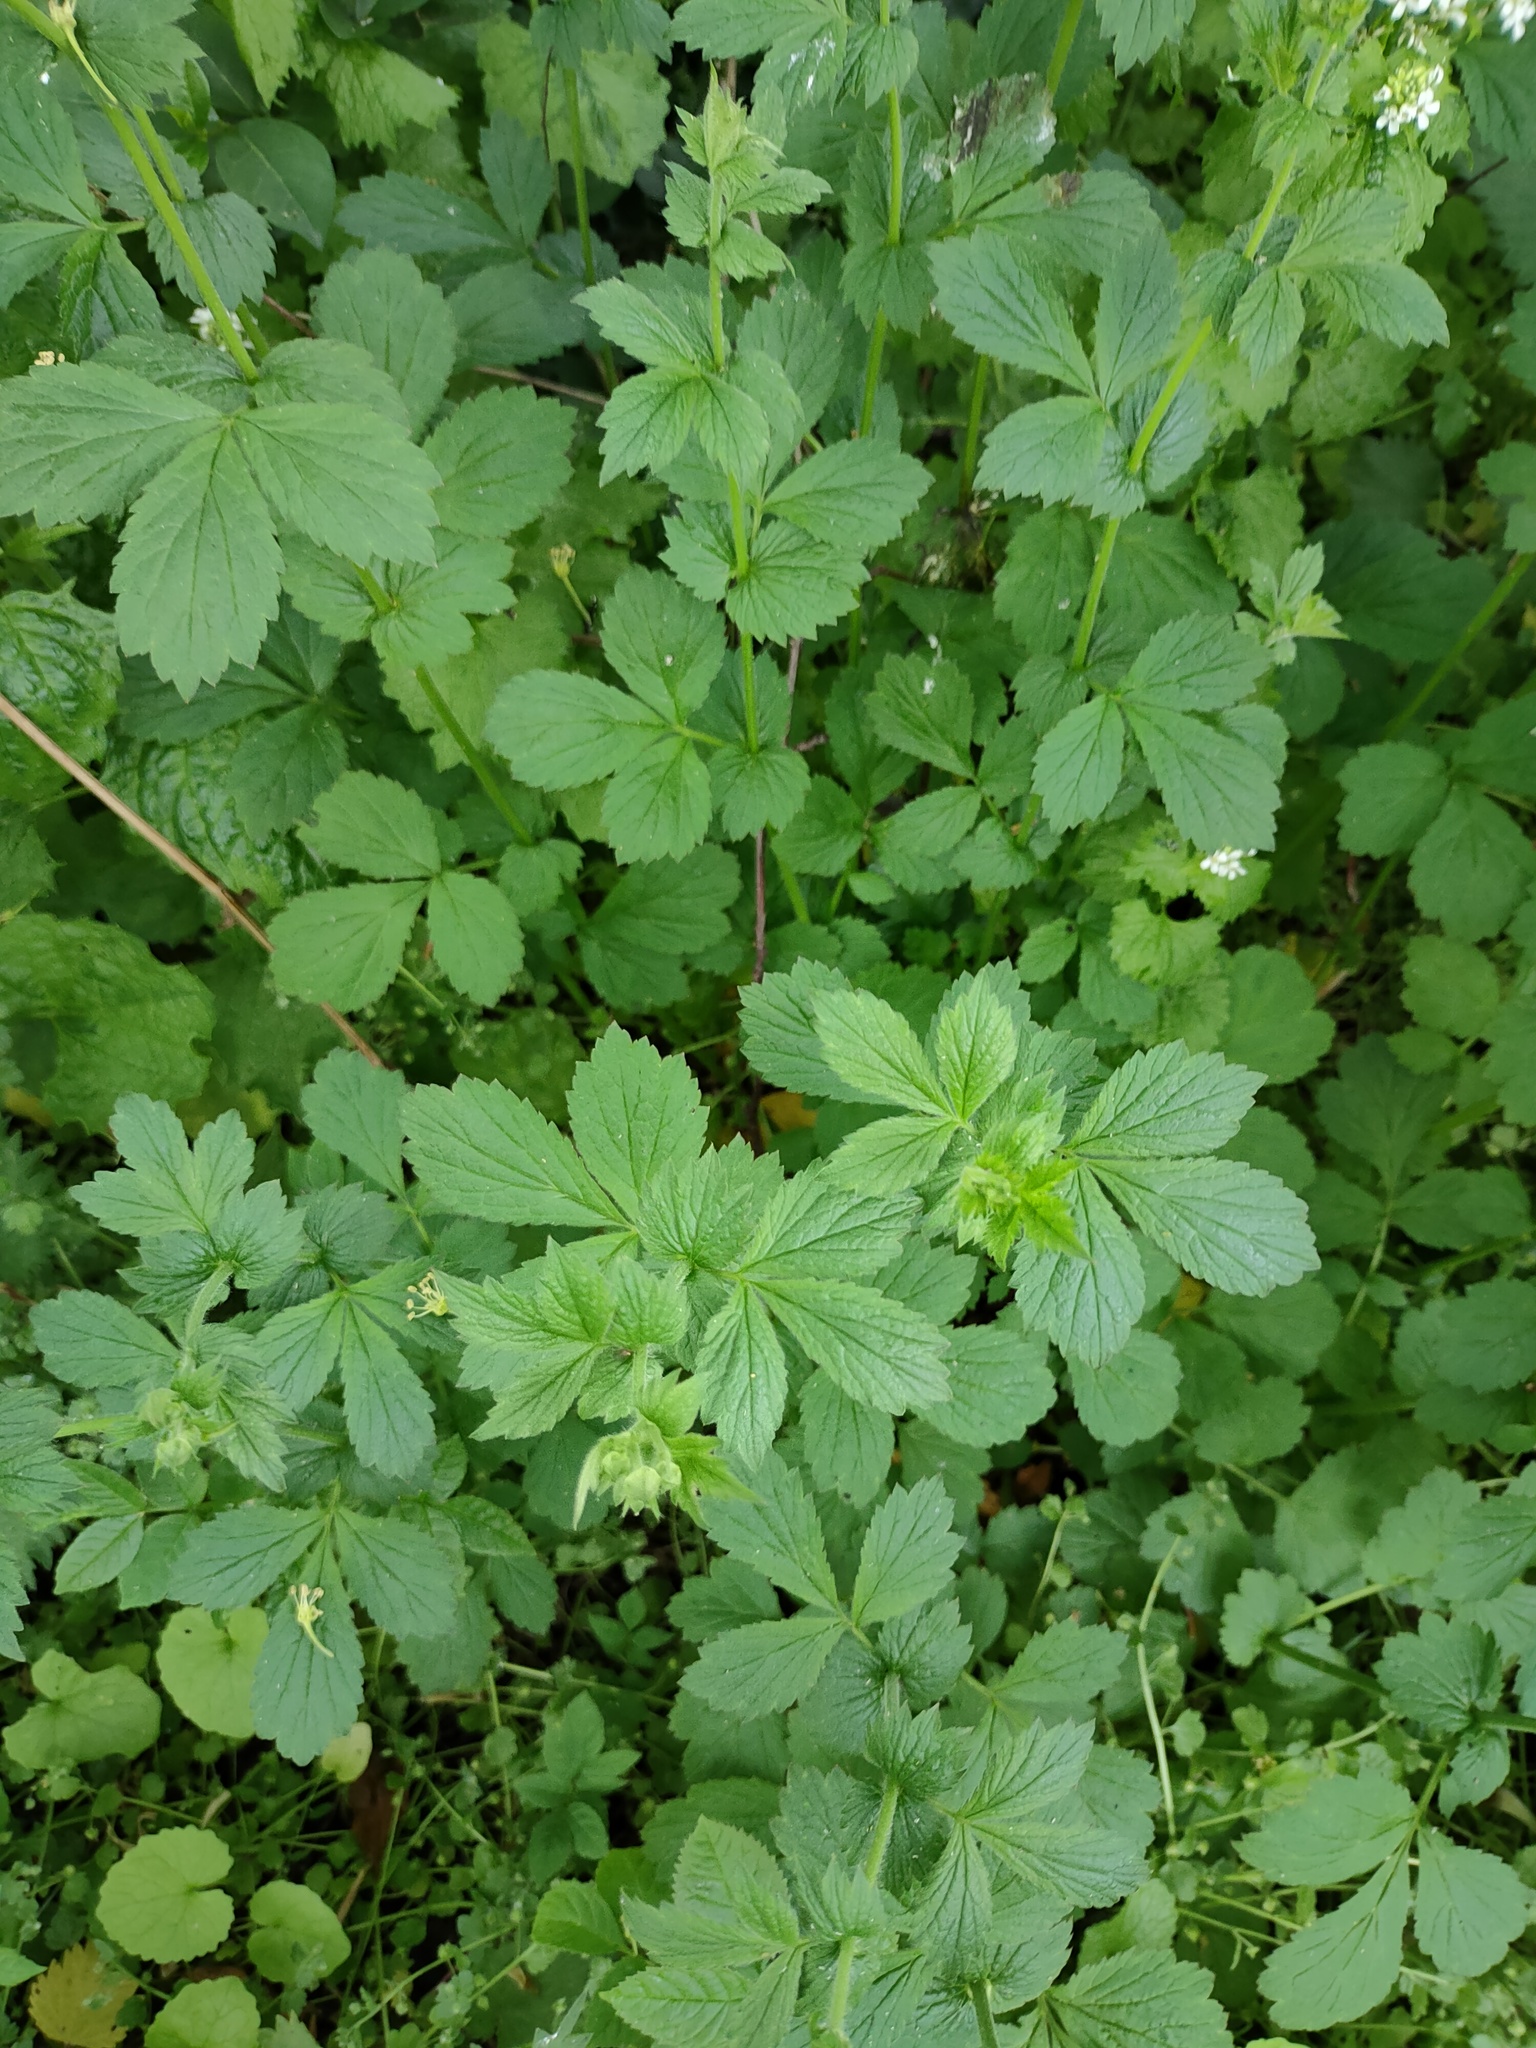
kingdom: Plantae
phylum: Tracheophyta
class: Magnoliopsida
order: Rosales
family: Rosaceae
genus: Geum
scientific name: Geum urbanum
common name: Wood avens
